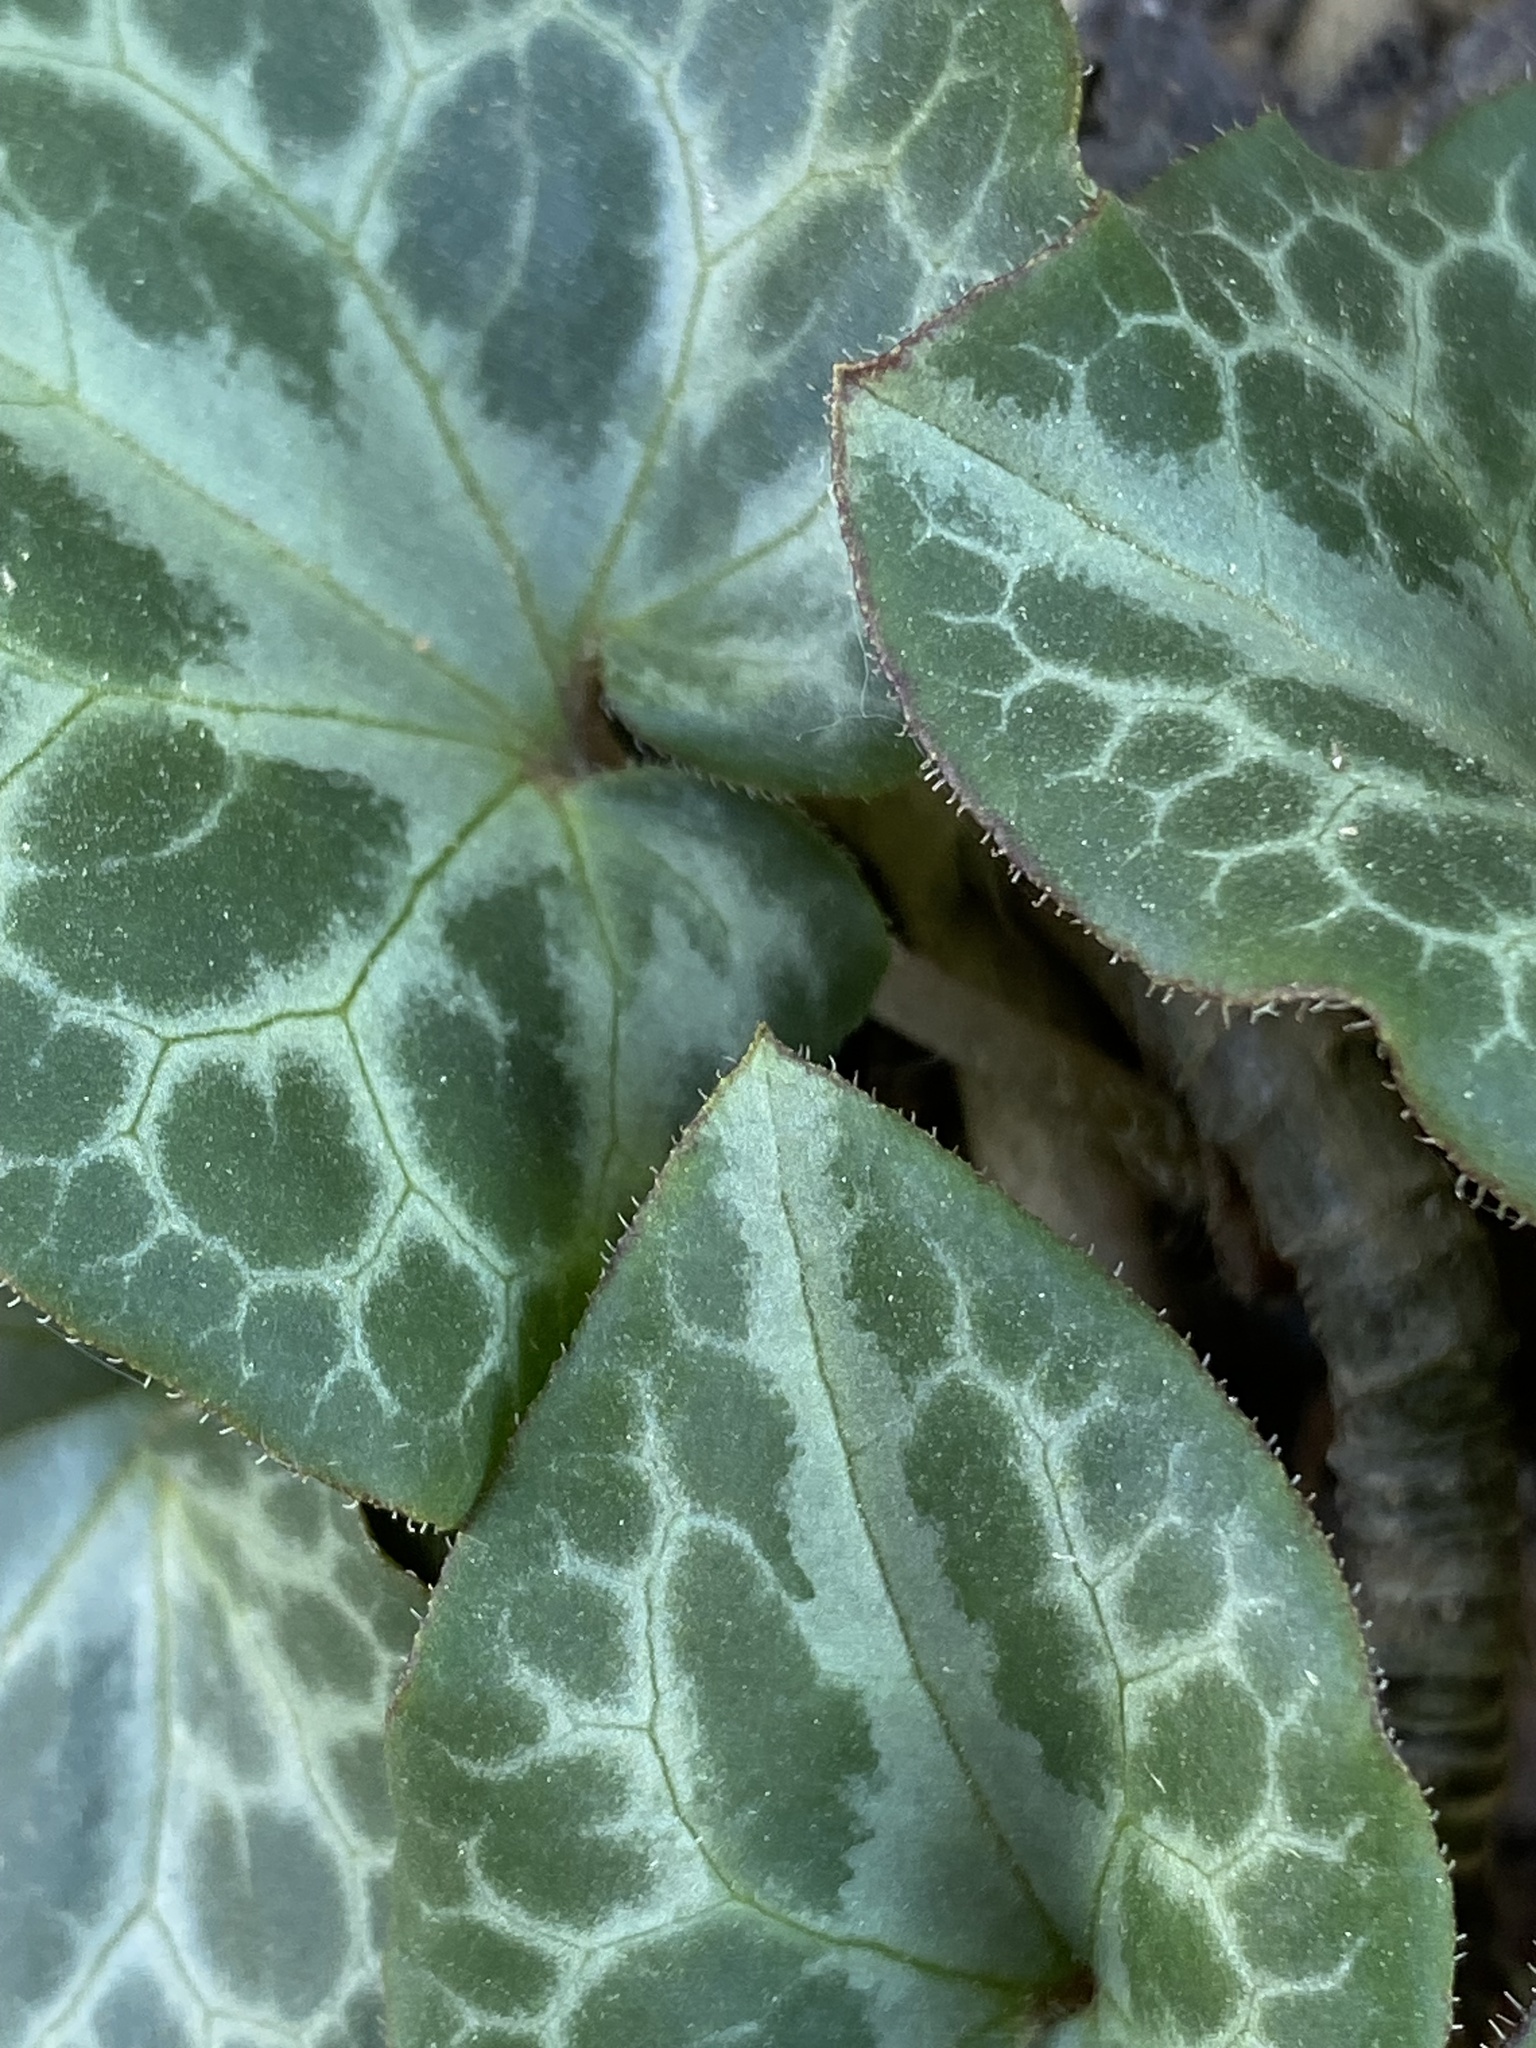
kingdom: Plantae
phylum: Tracheophyta
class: Magnoliopsida
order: Piperales
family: Aristolochiaceae
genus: Asarum
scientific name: Asarum marmoratum
